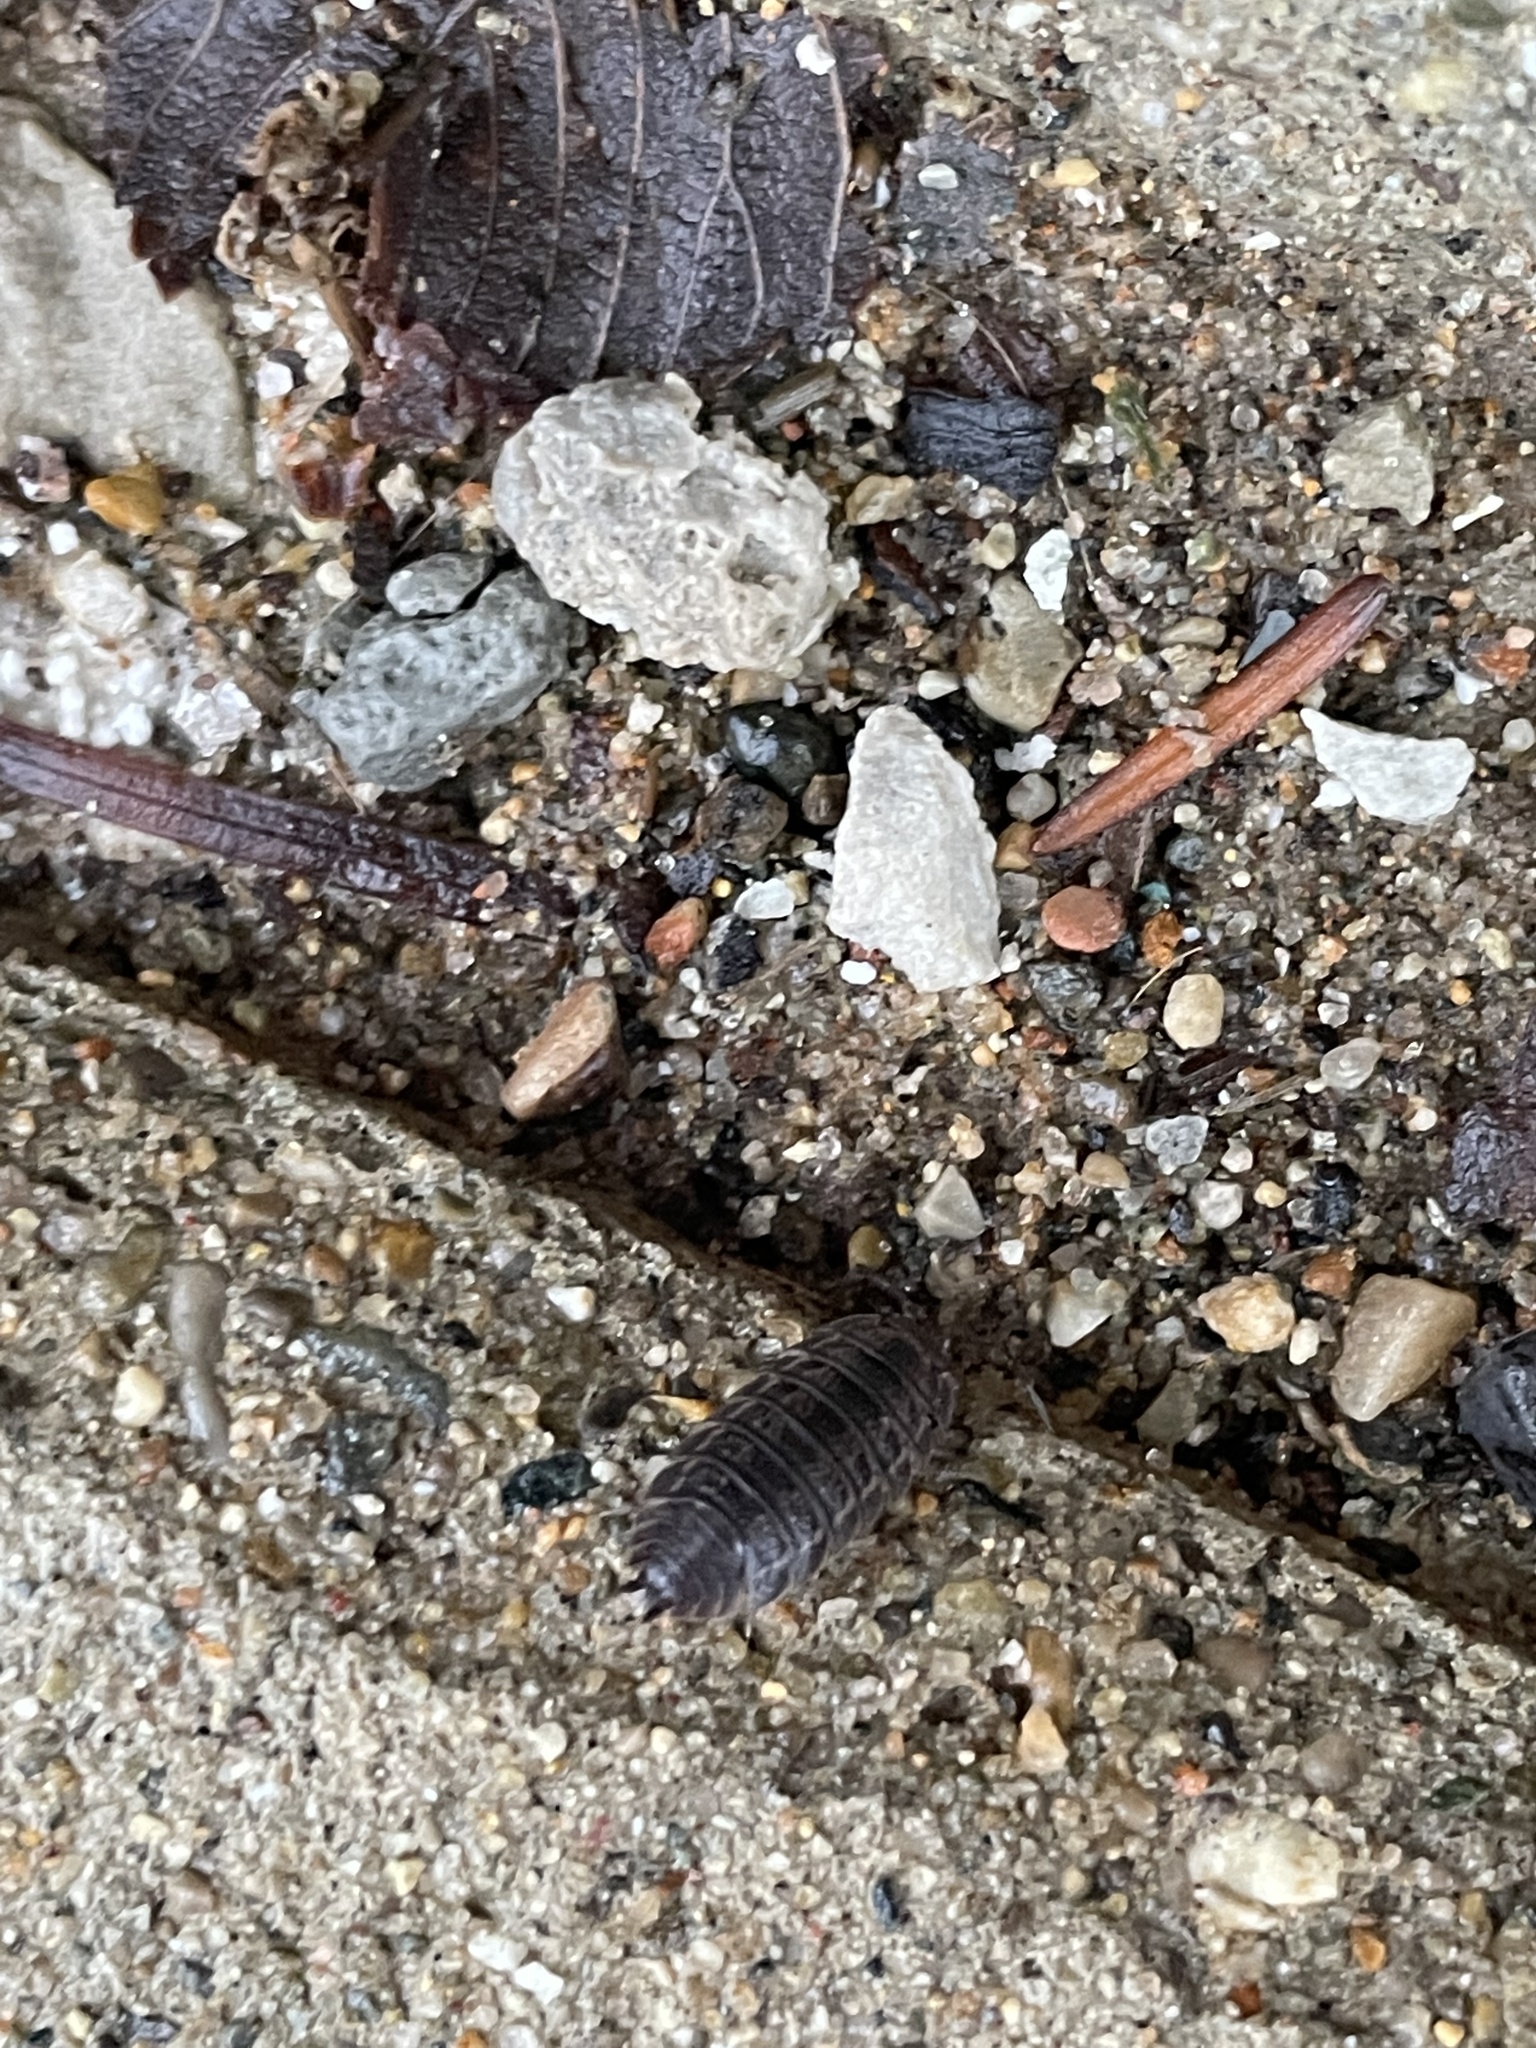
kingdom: Animalia
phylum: Arthropoda
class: Malacostraca
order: Isopoda
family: Trachelipodidae
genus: Trachelipus
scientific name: Trachelipus rathkii
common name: Isopod
